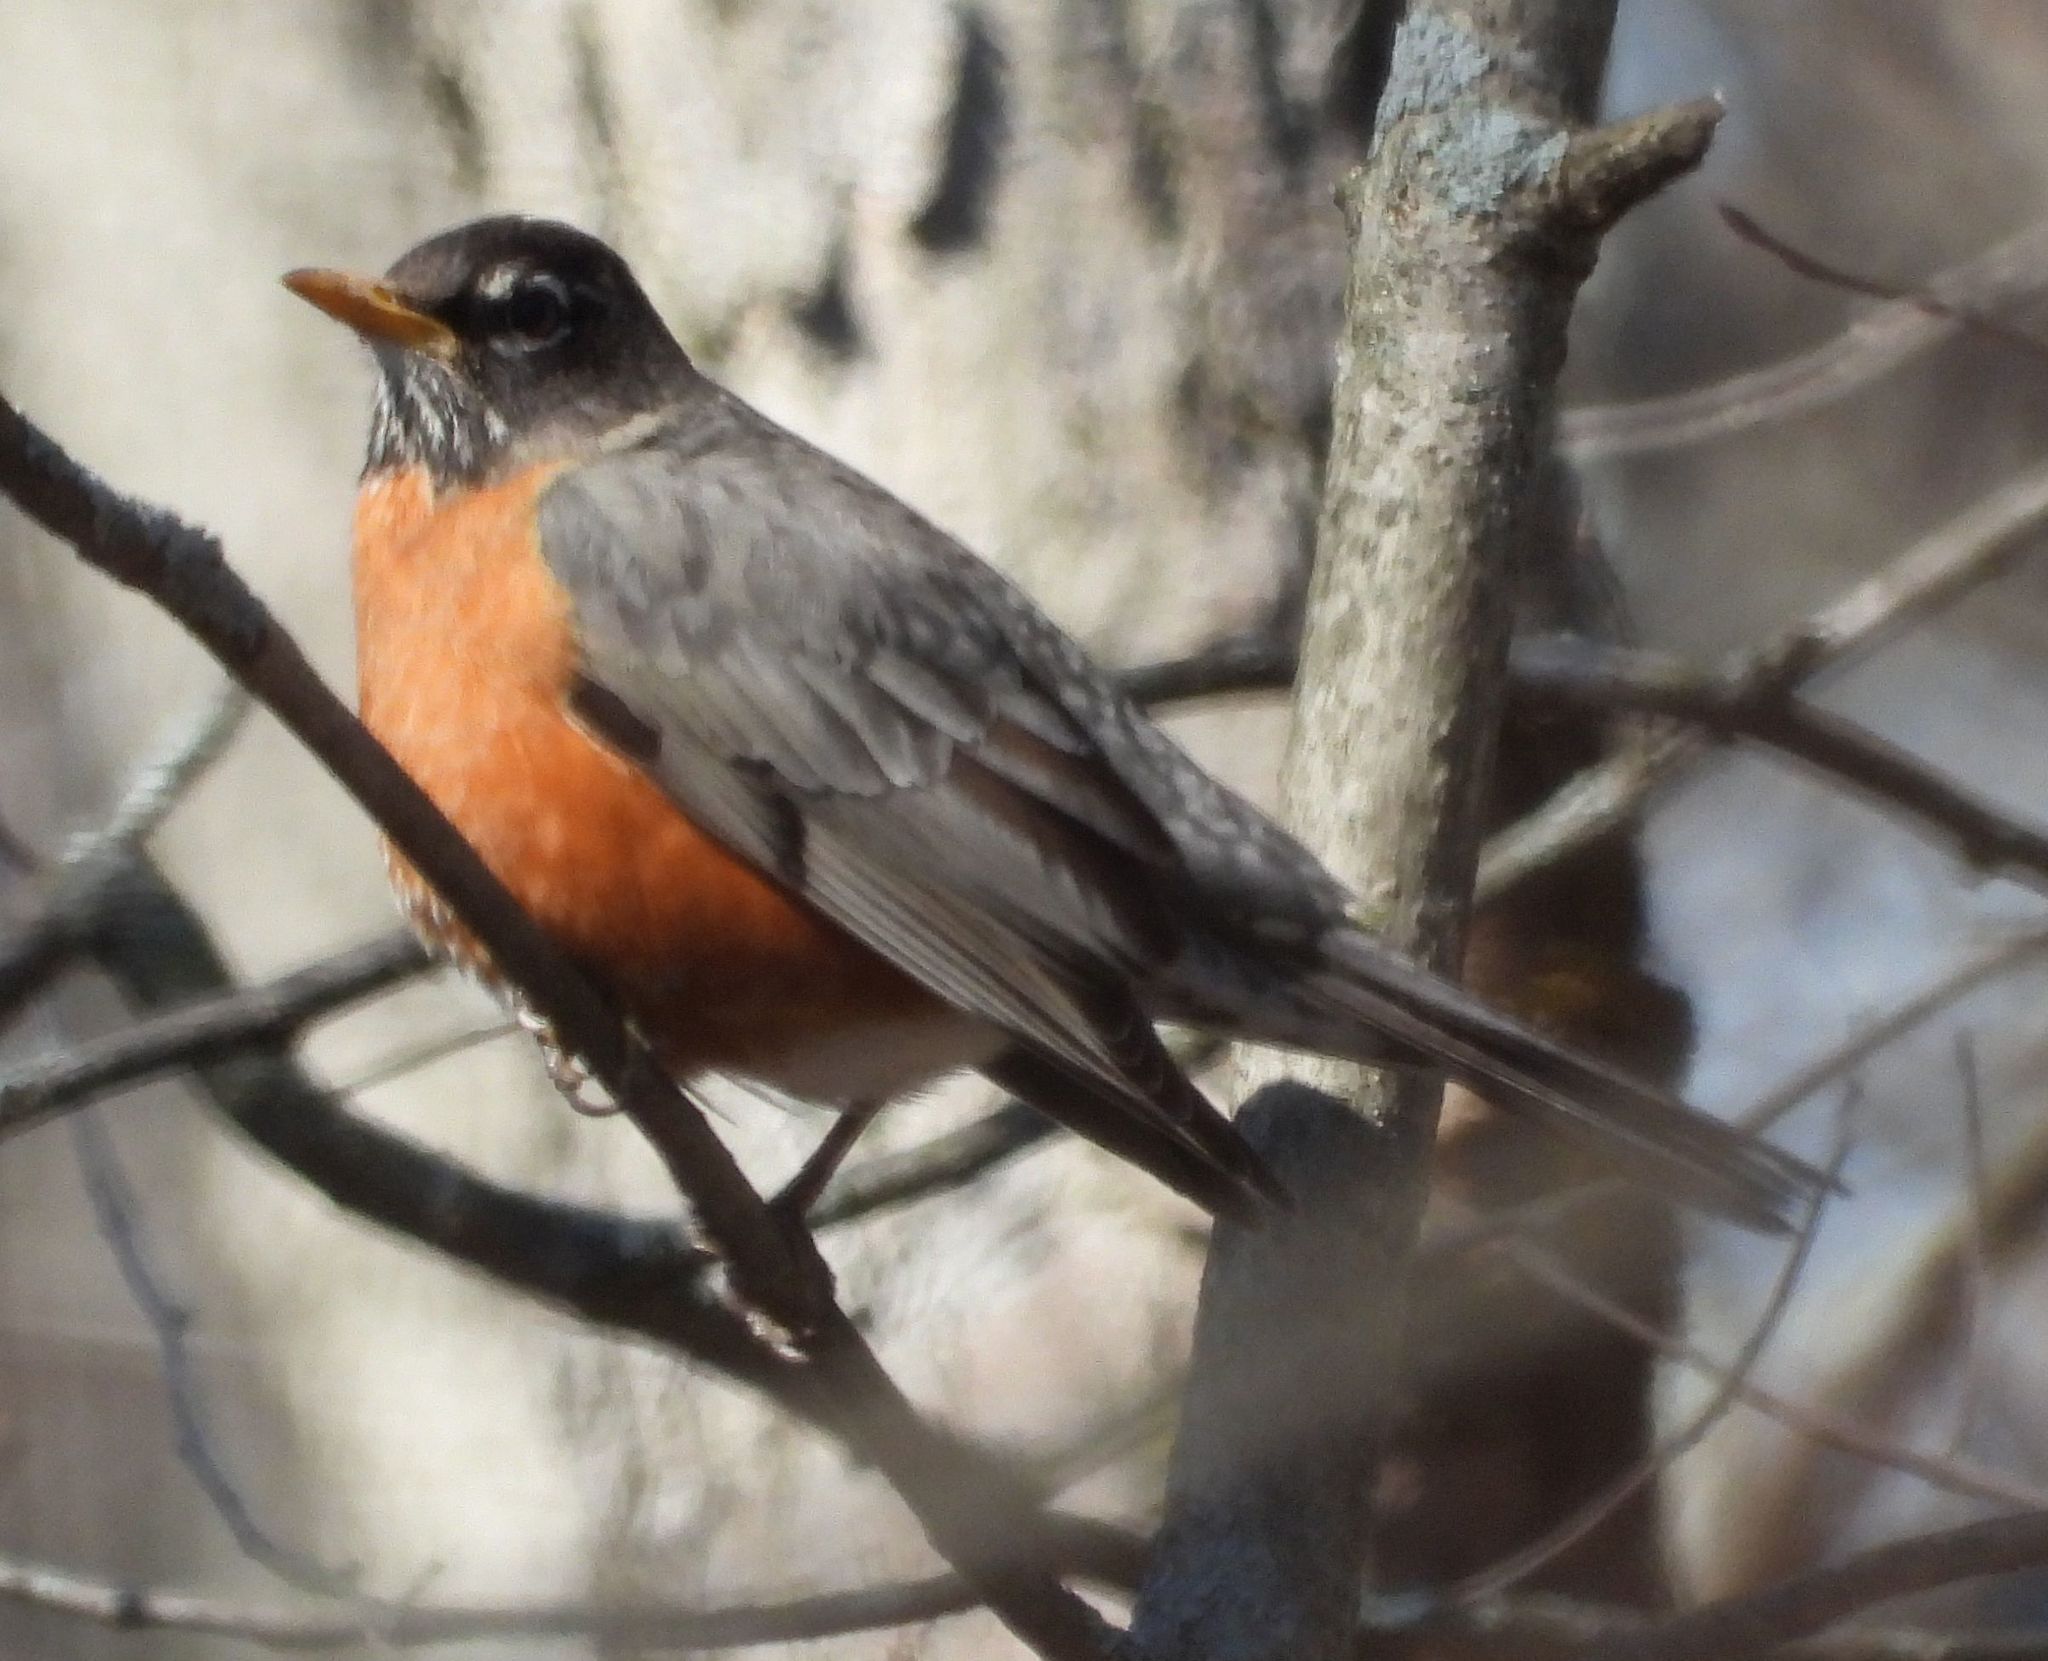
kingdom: Animalia
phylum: Chordata
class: Aves
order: Passeriformes
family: Turdidae
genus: Turdus
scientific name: Turdus migratorius
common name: American robin
